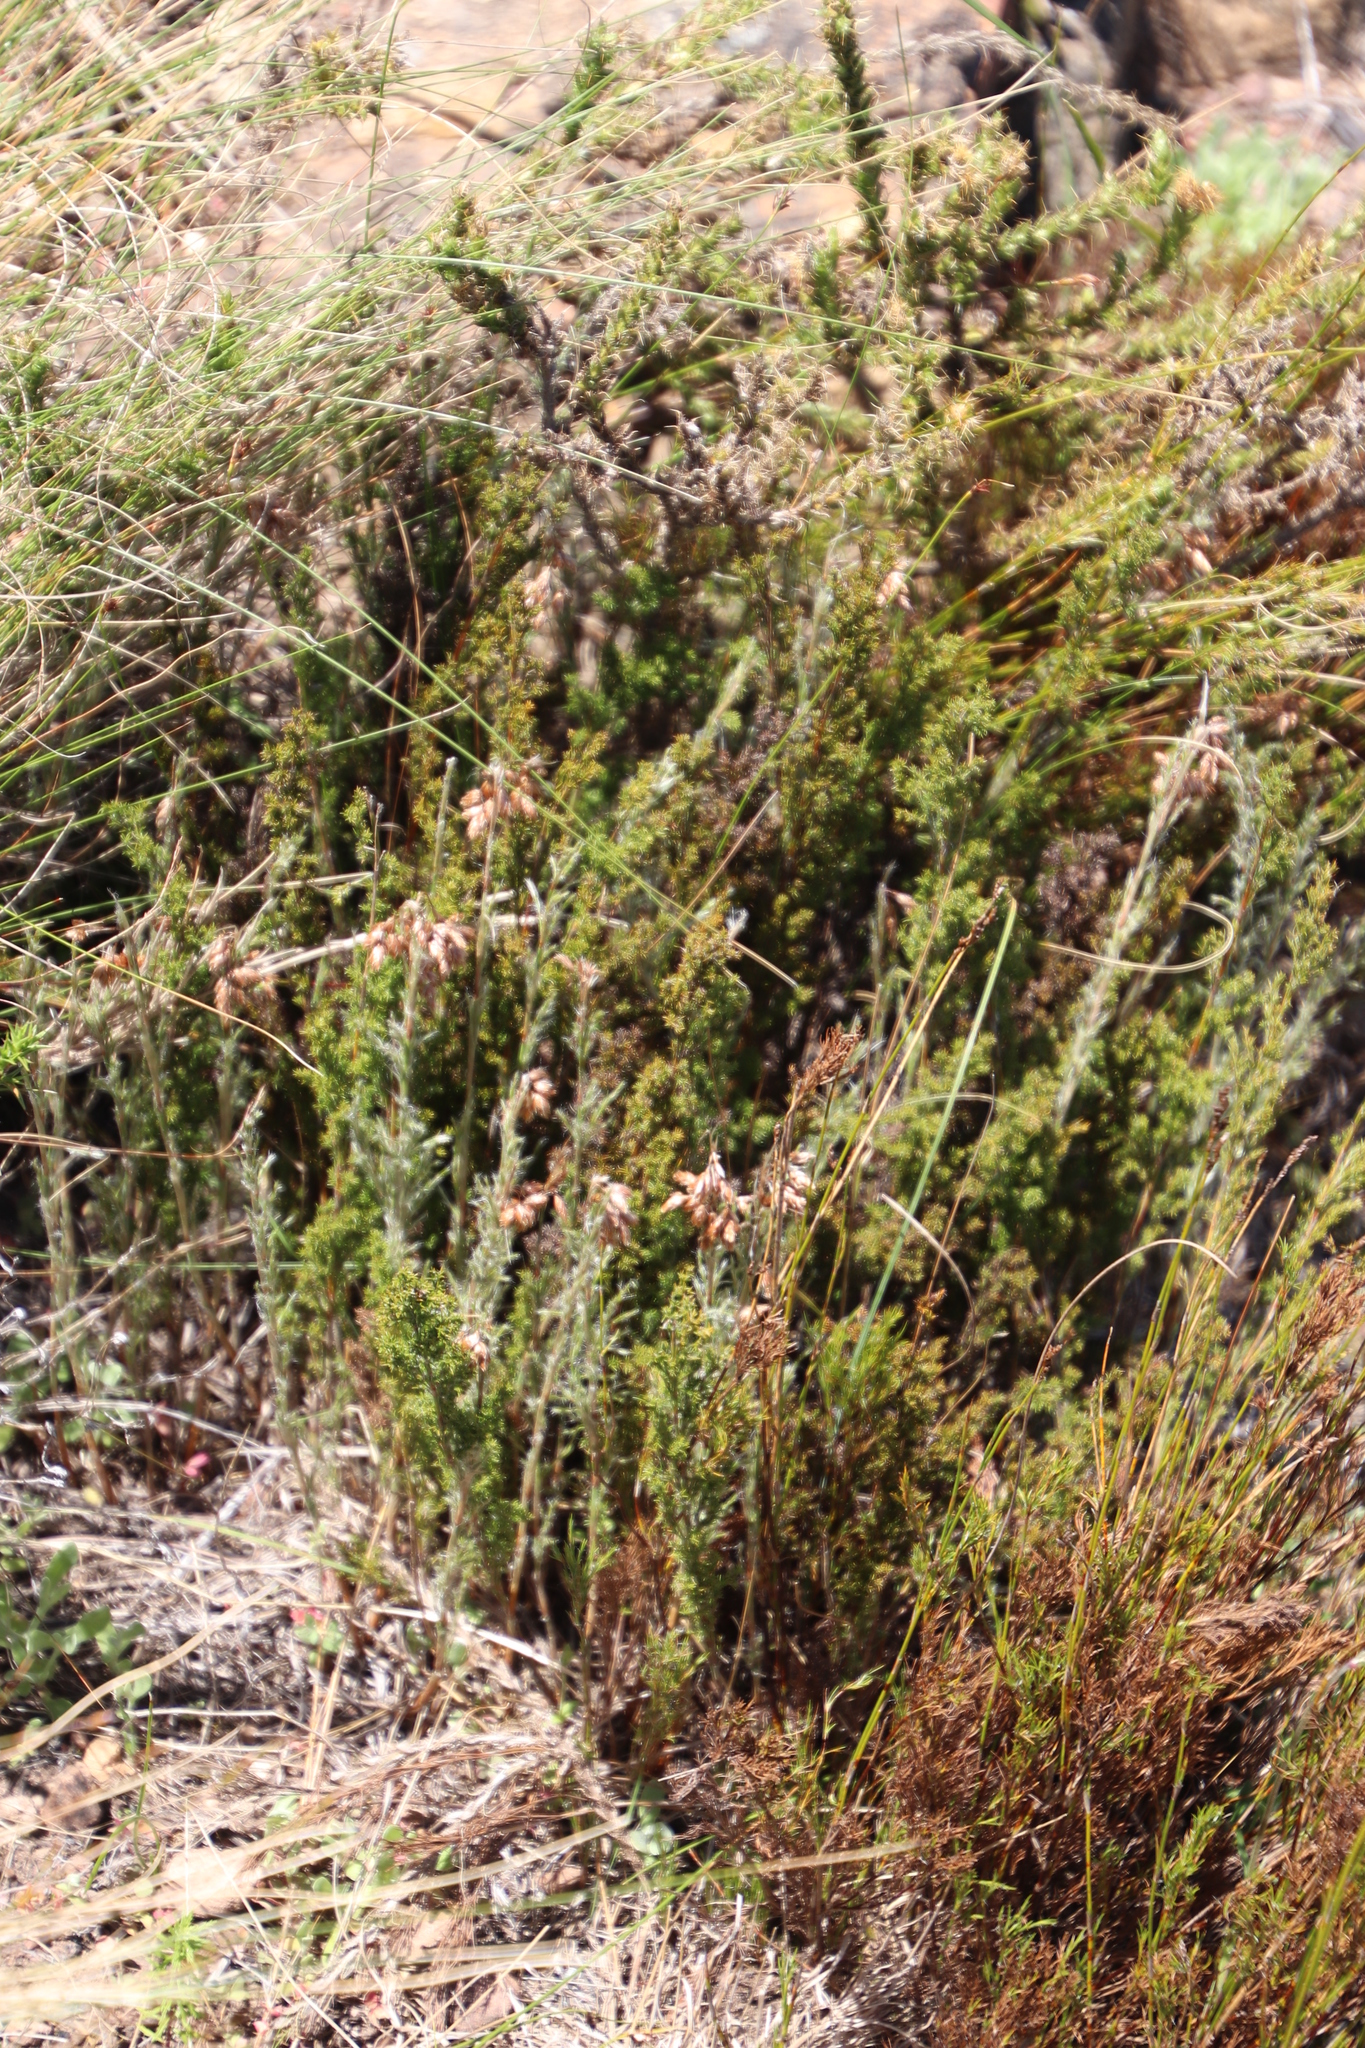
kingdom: Plantae
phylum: Tracheophyta
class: Liliopsida
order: Poales
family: Restionaceae
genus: Thamnochortus
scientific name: Thamnochortus fruticosus
